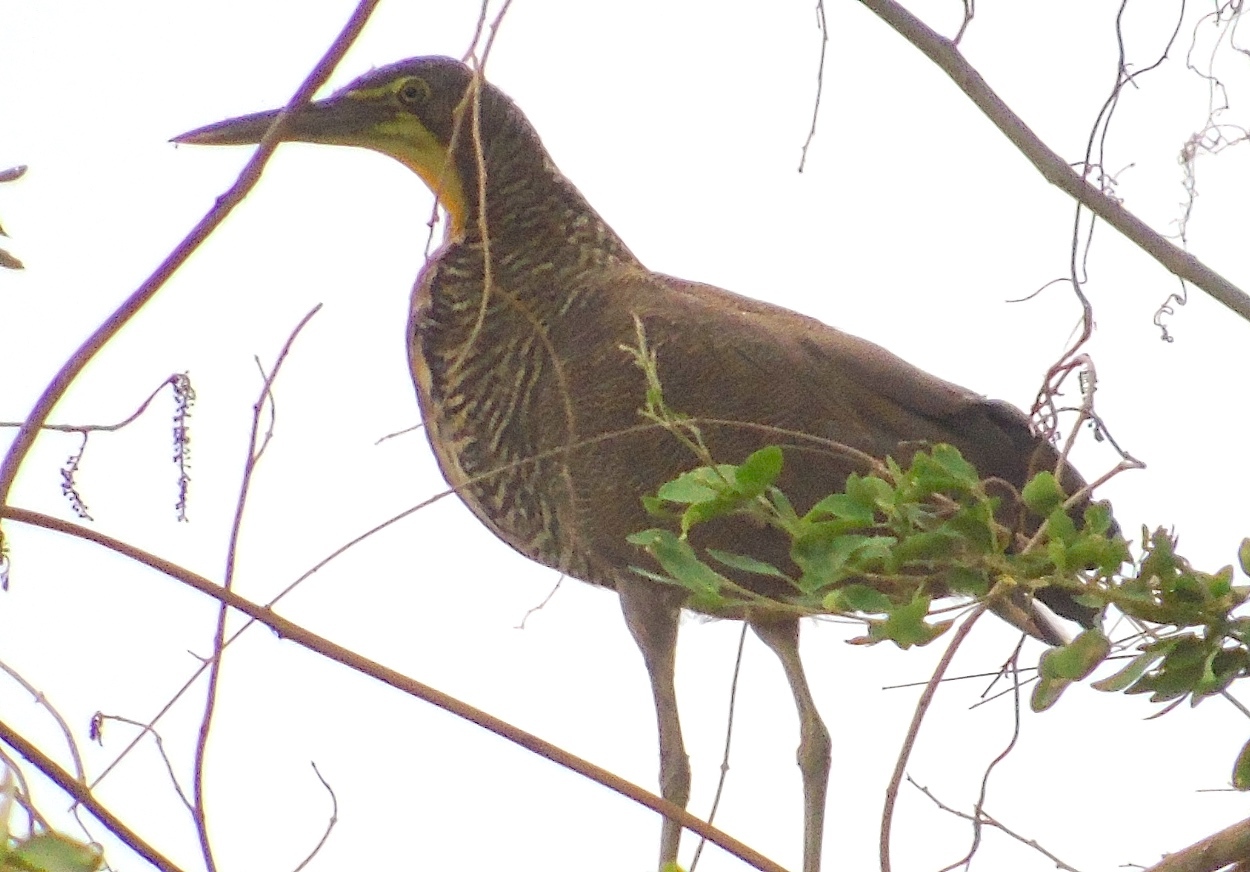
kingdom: Animalia
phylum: Chordata
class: Aves
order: Pelecaniformes
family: Ardeidae
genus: Tigrisoma
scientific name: Tigrisoma mexicanum
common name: Bare-throated tiger-heron
